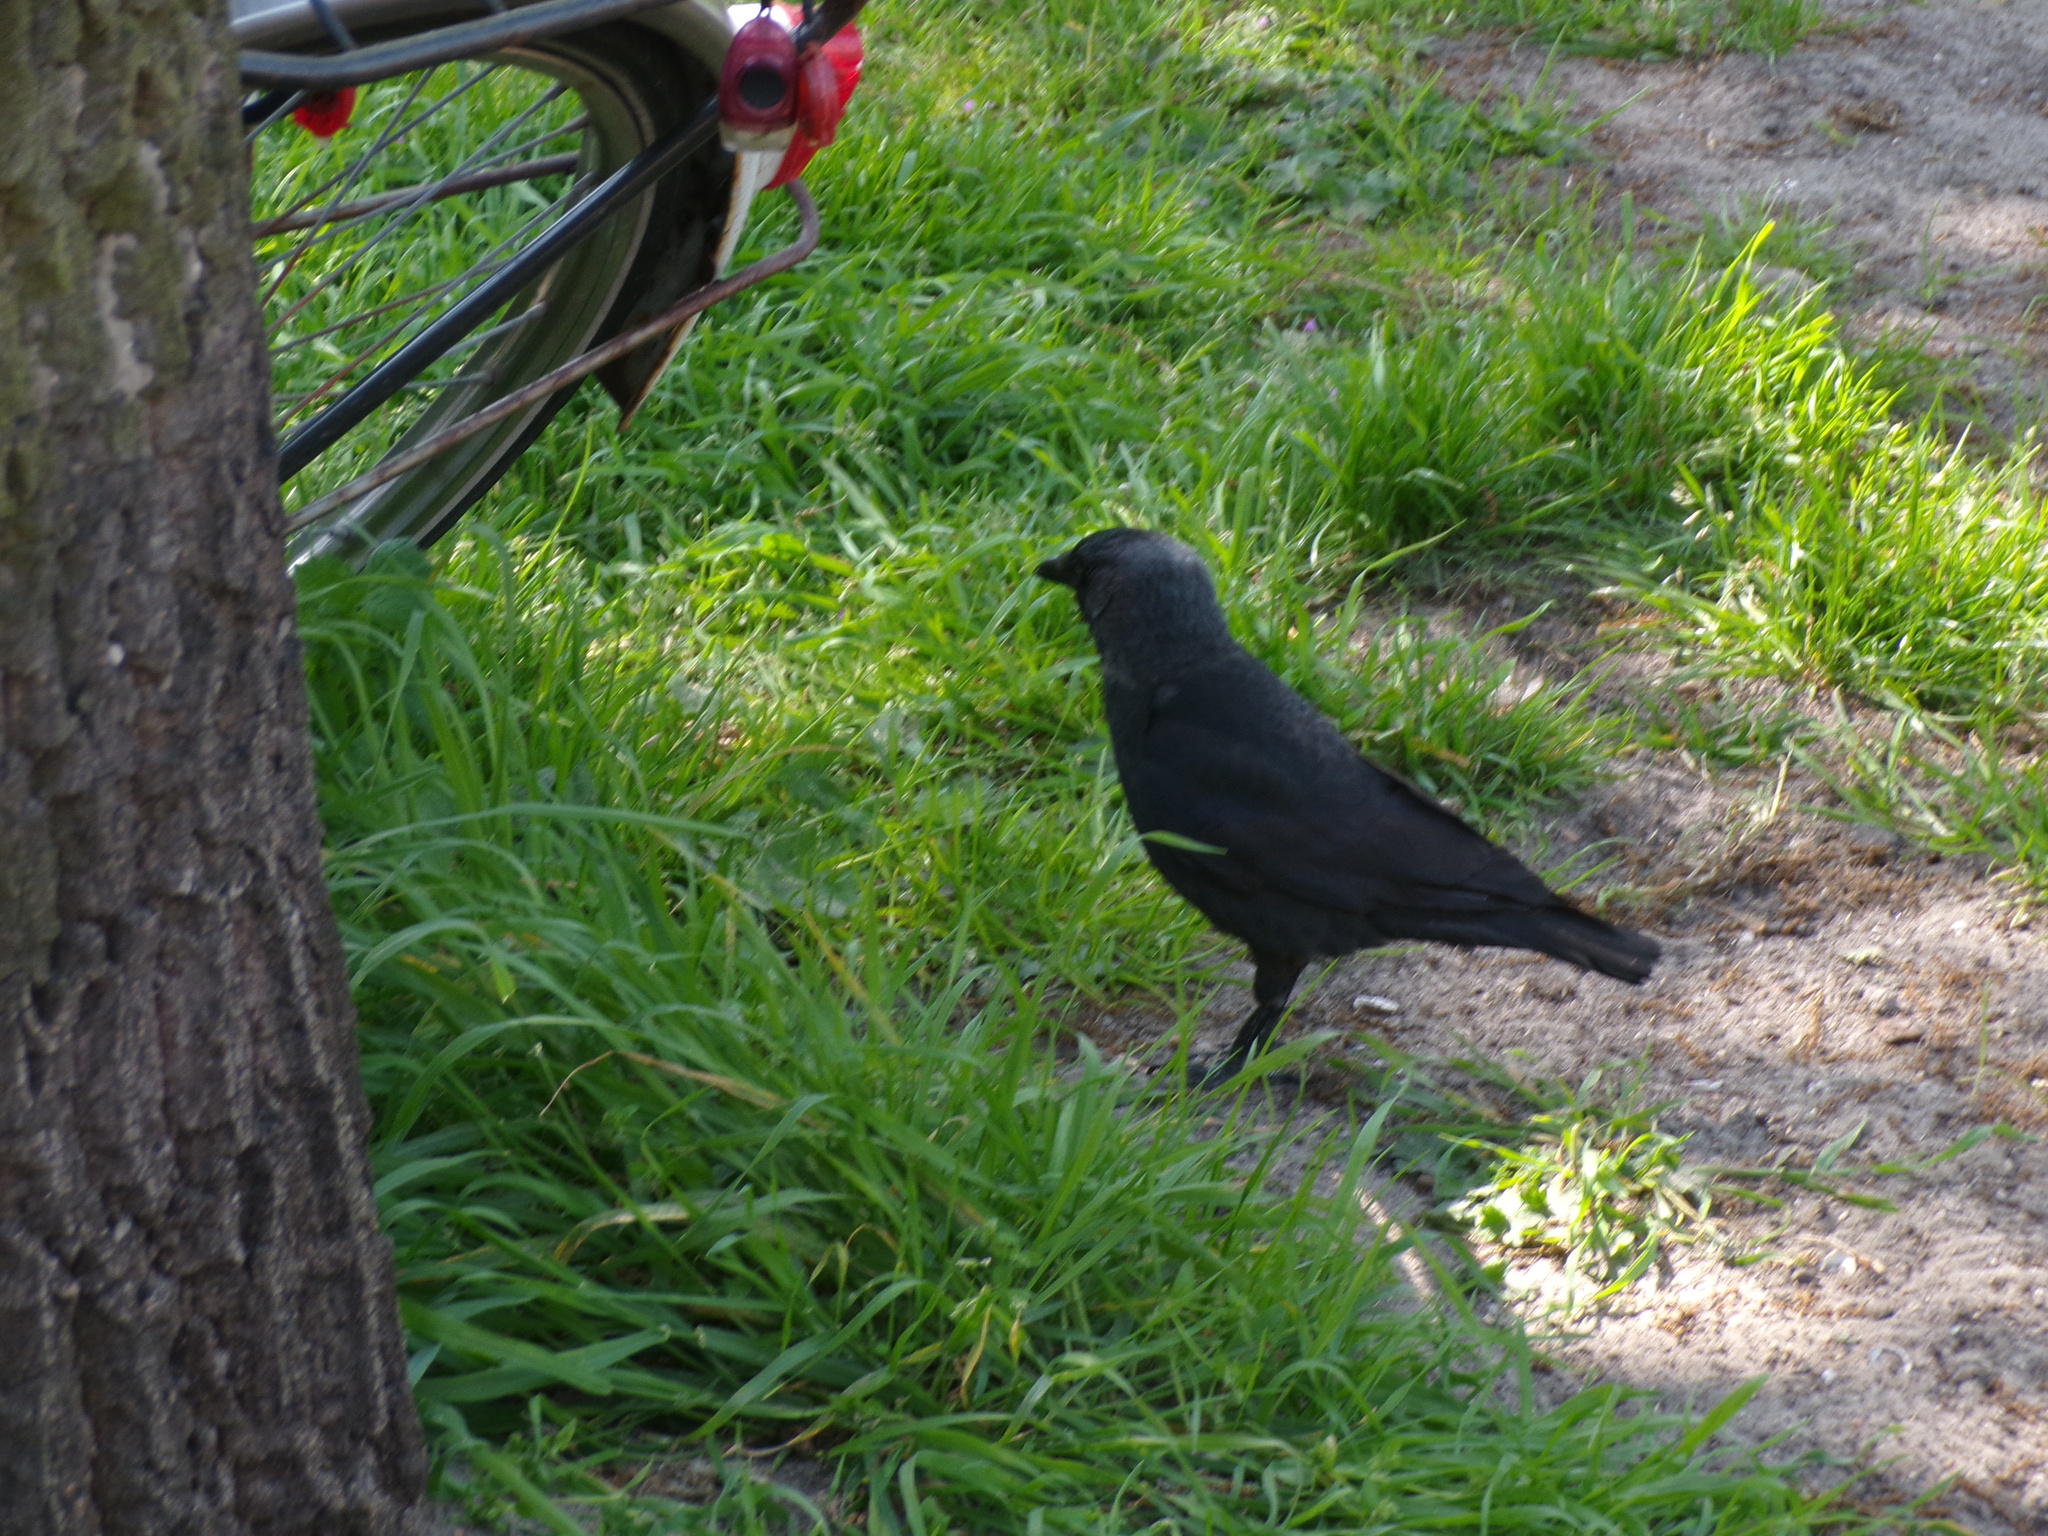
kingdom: Animalia
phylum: Chordata
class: Aves
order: Passeriformes
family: Corvidae
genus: Coloeus
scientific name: Coloeus monedula
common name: Western jackdaw
